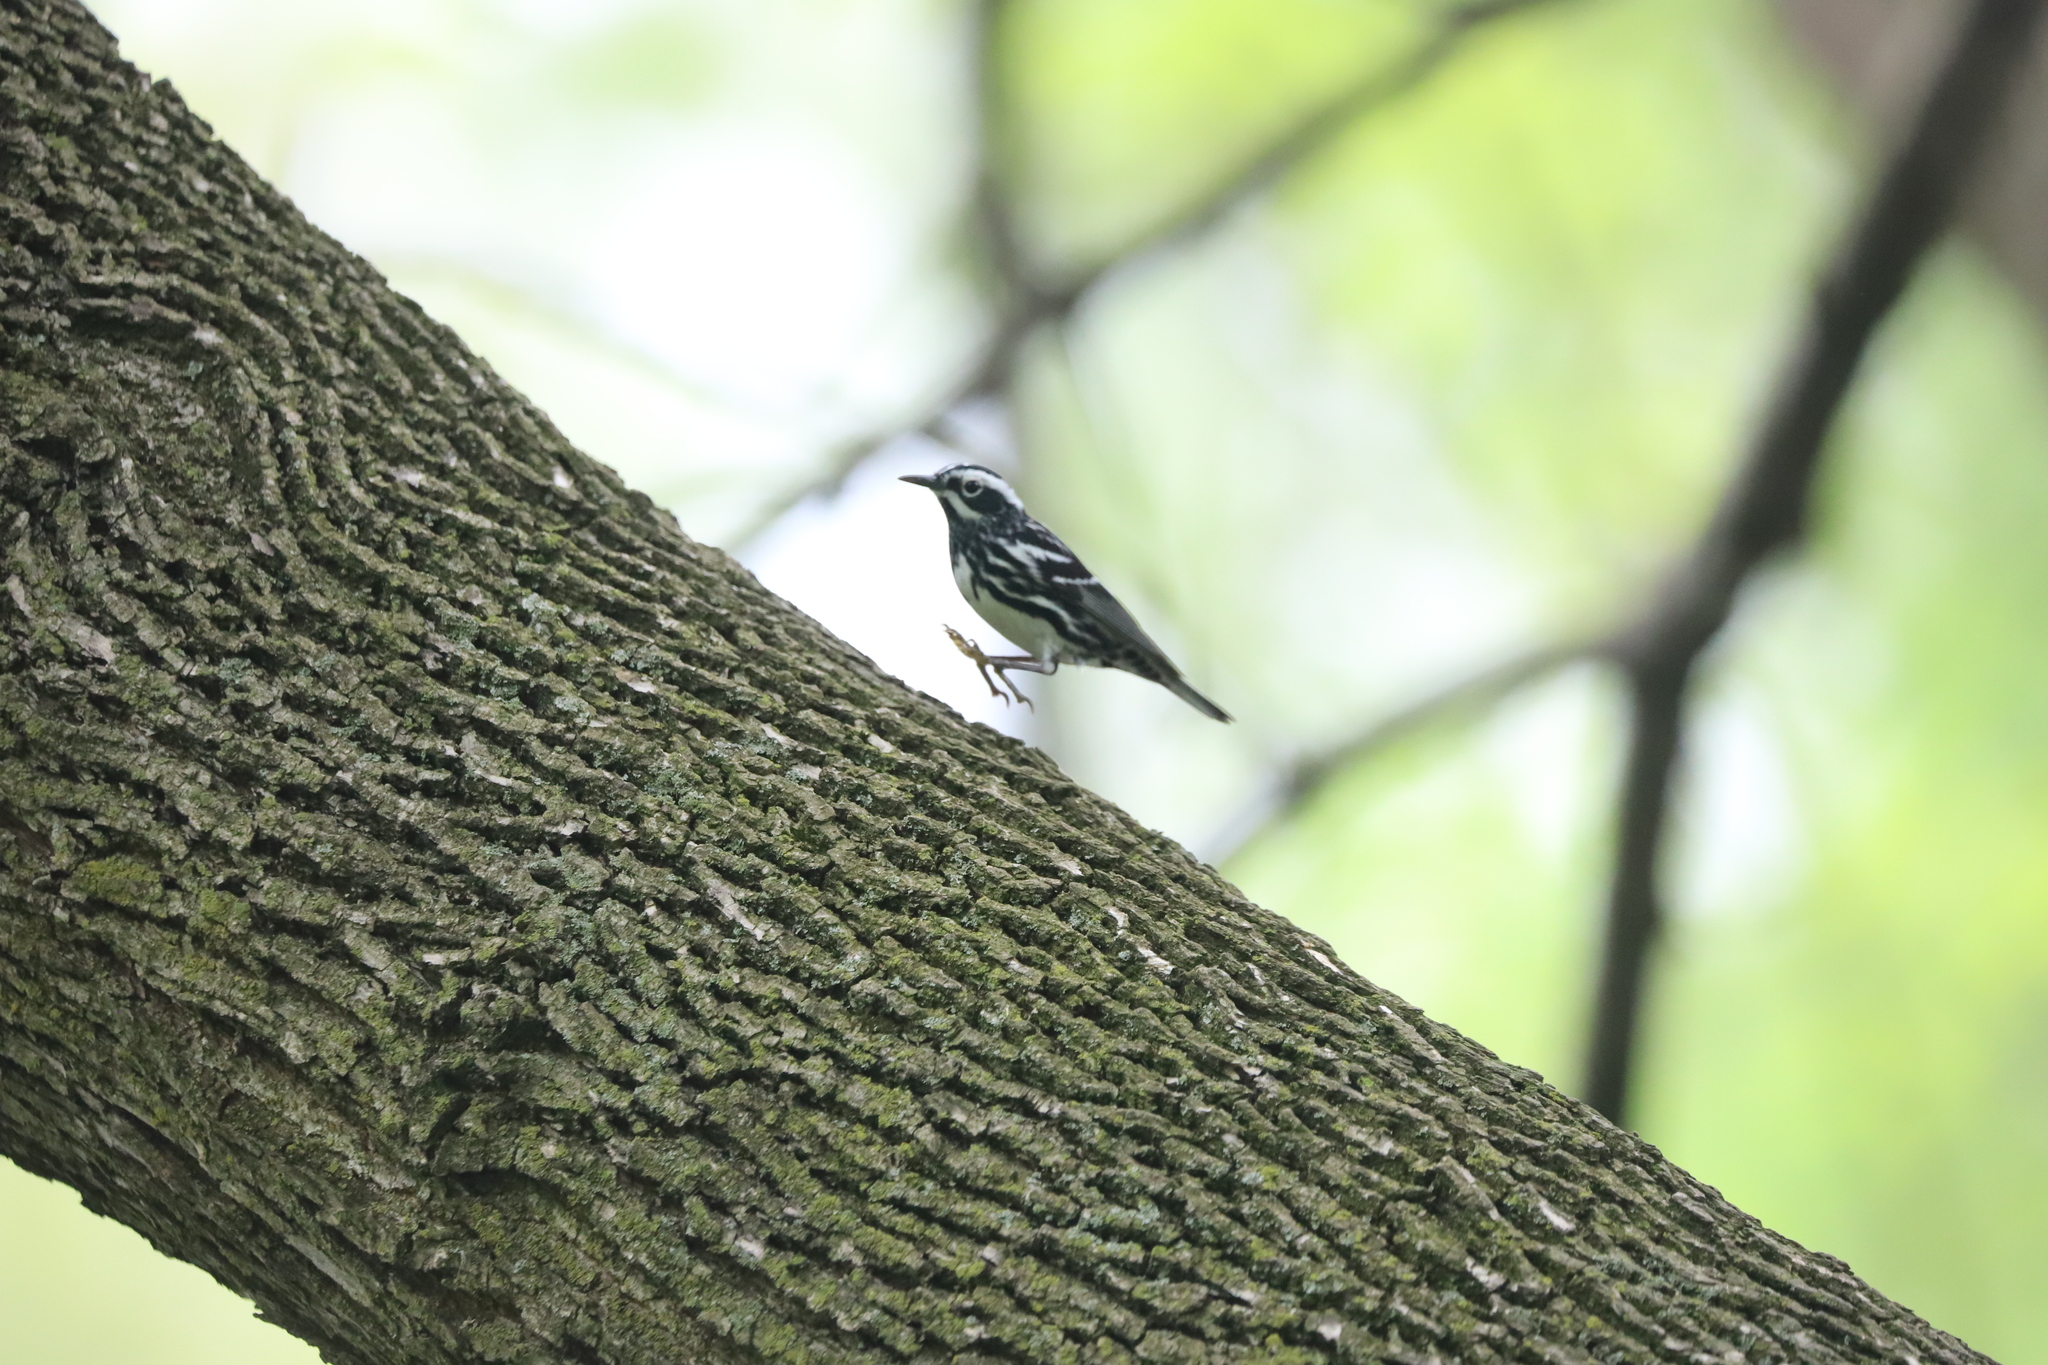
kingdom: Animalia
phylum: Chordata
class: Aves
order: Passeriformes
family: Parulidae
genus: Mniotilta
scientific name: Mniotilta varia
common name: Black-and-white warbler
